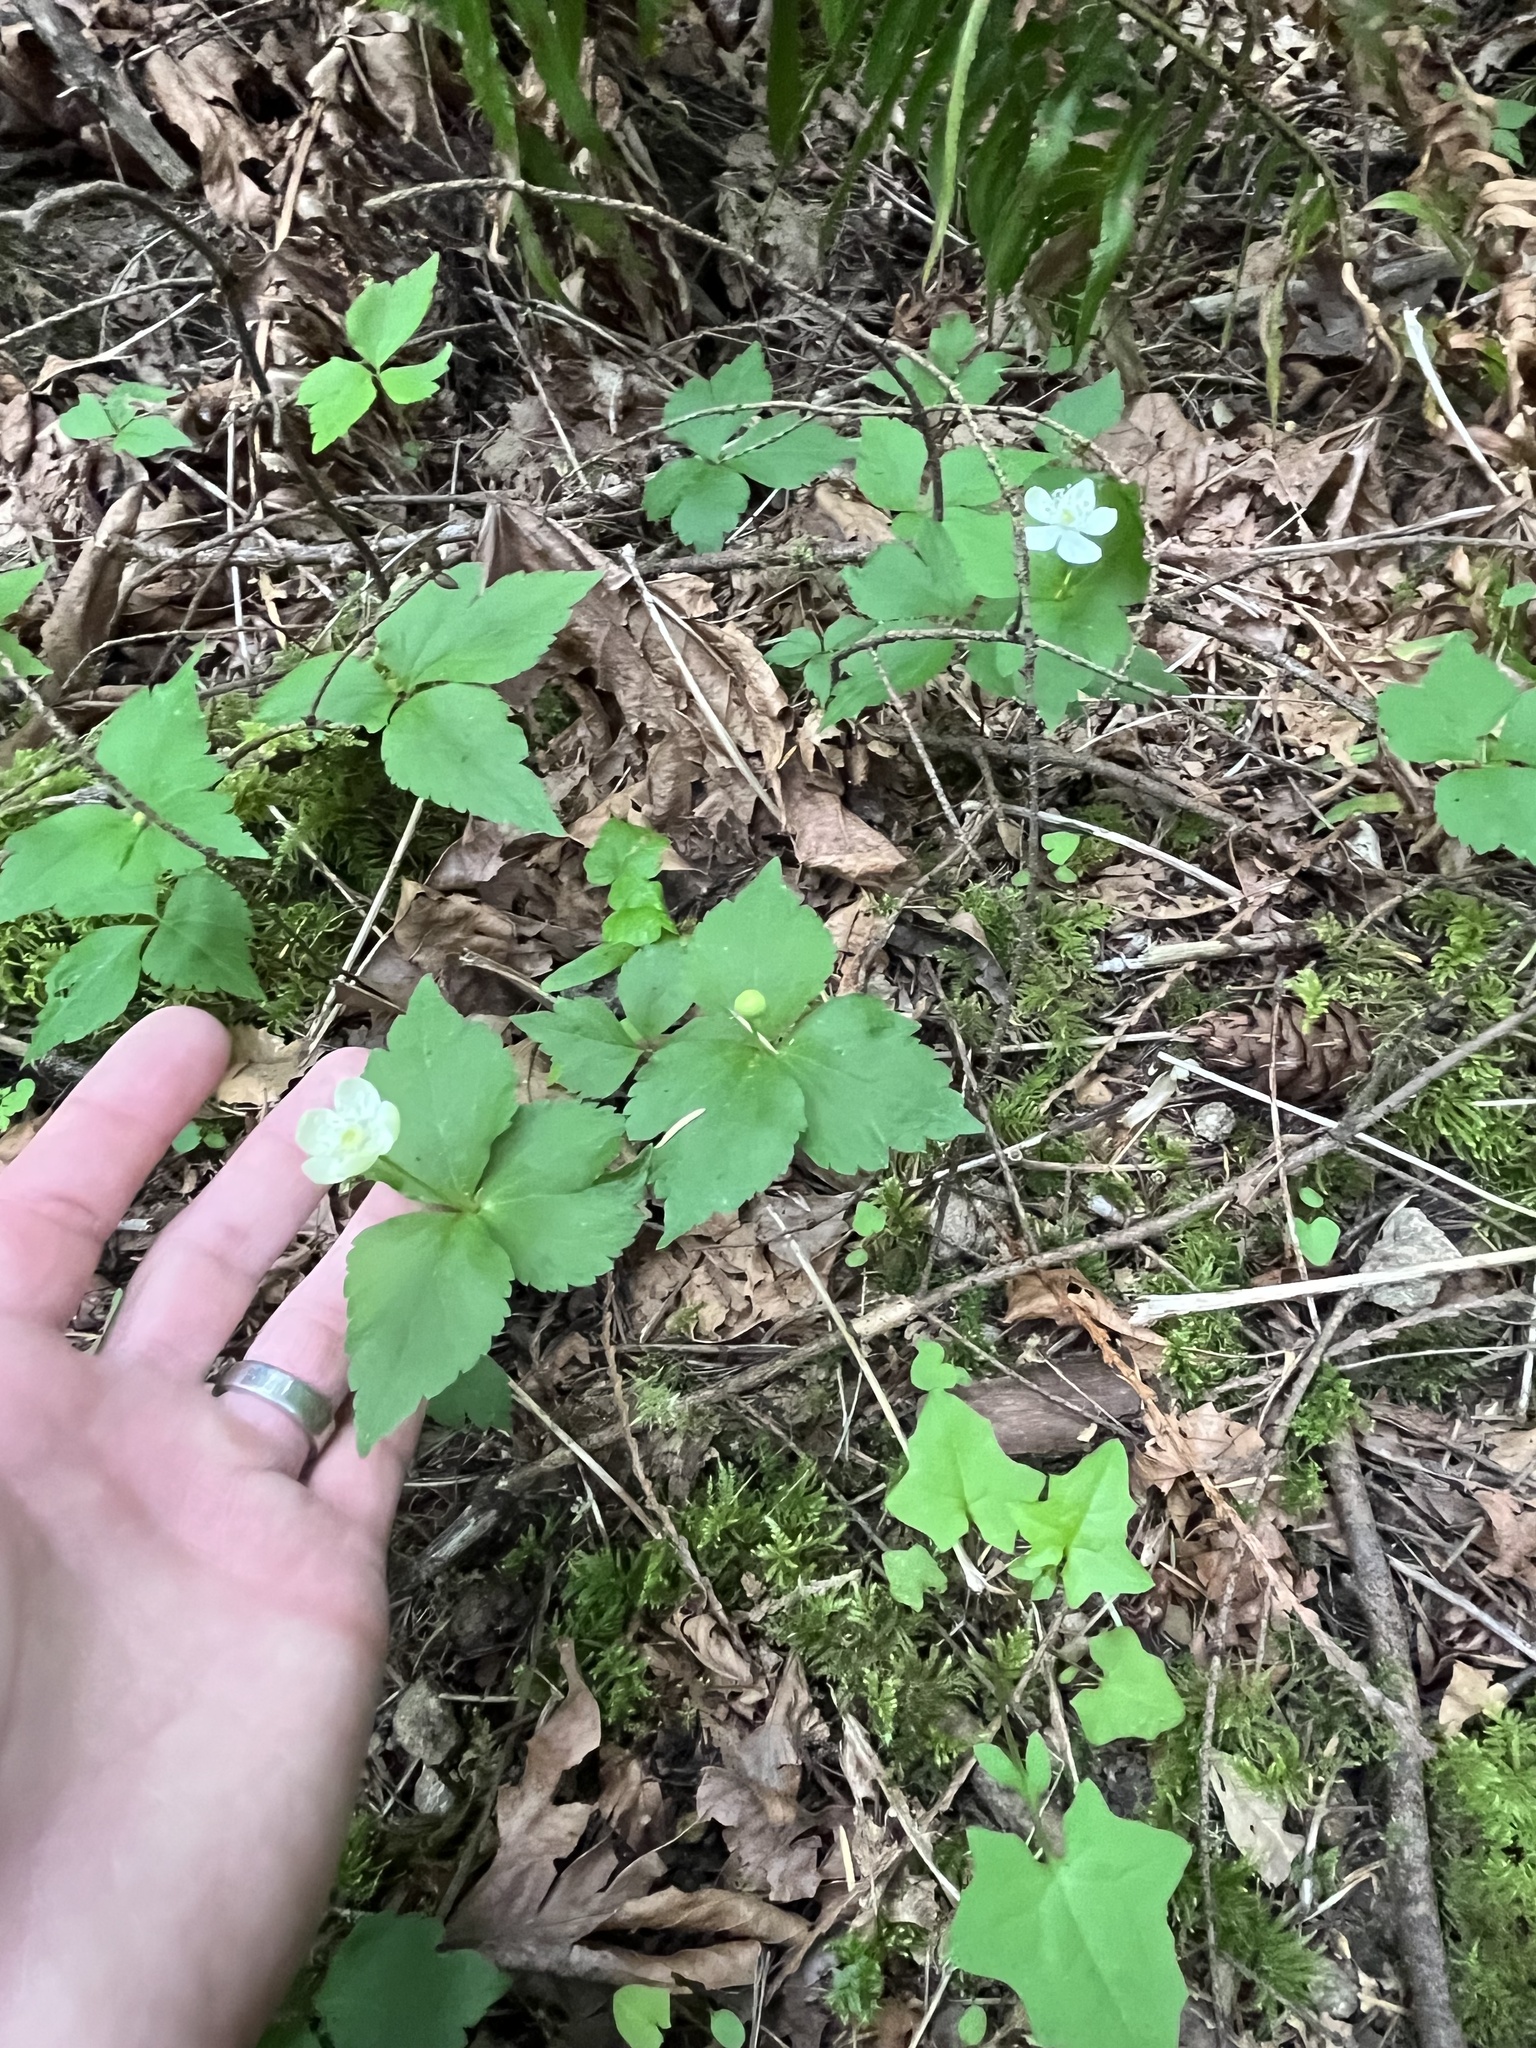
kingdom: Plantae
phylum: Tracheophyta
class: Magnoliopsida
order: Ranunculales
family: Ranunculaceae
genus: Anemonastrum
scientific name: Anemonastrum deltoideum
